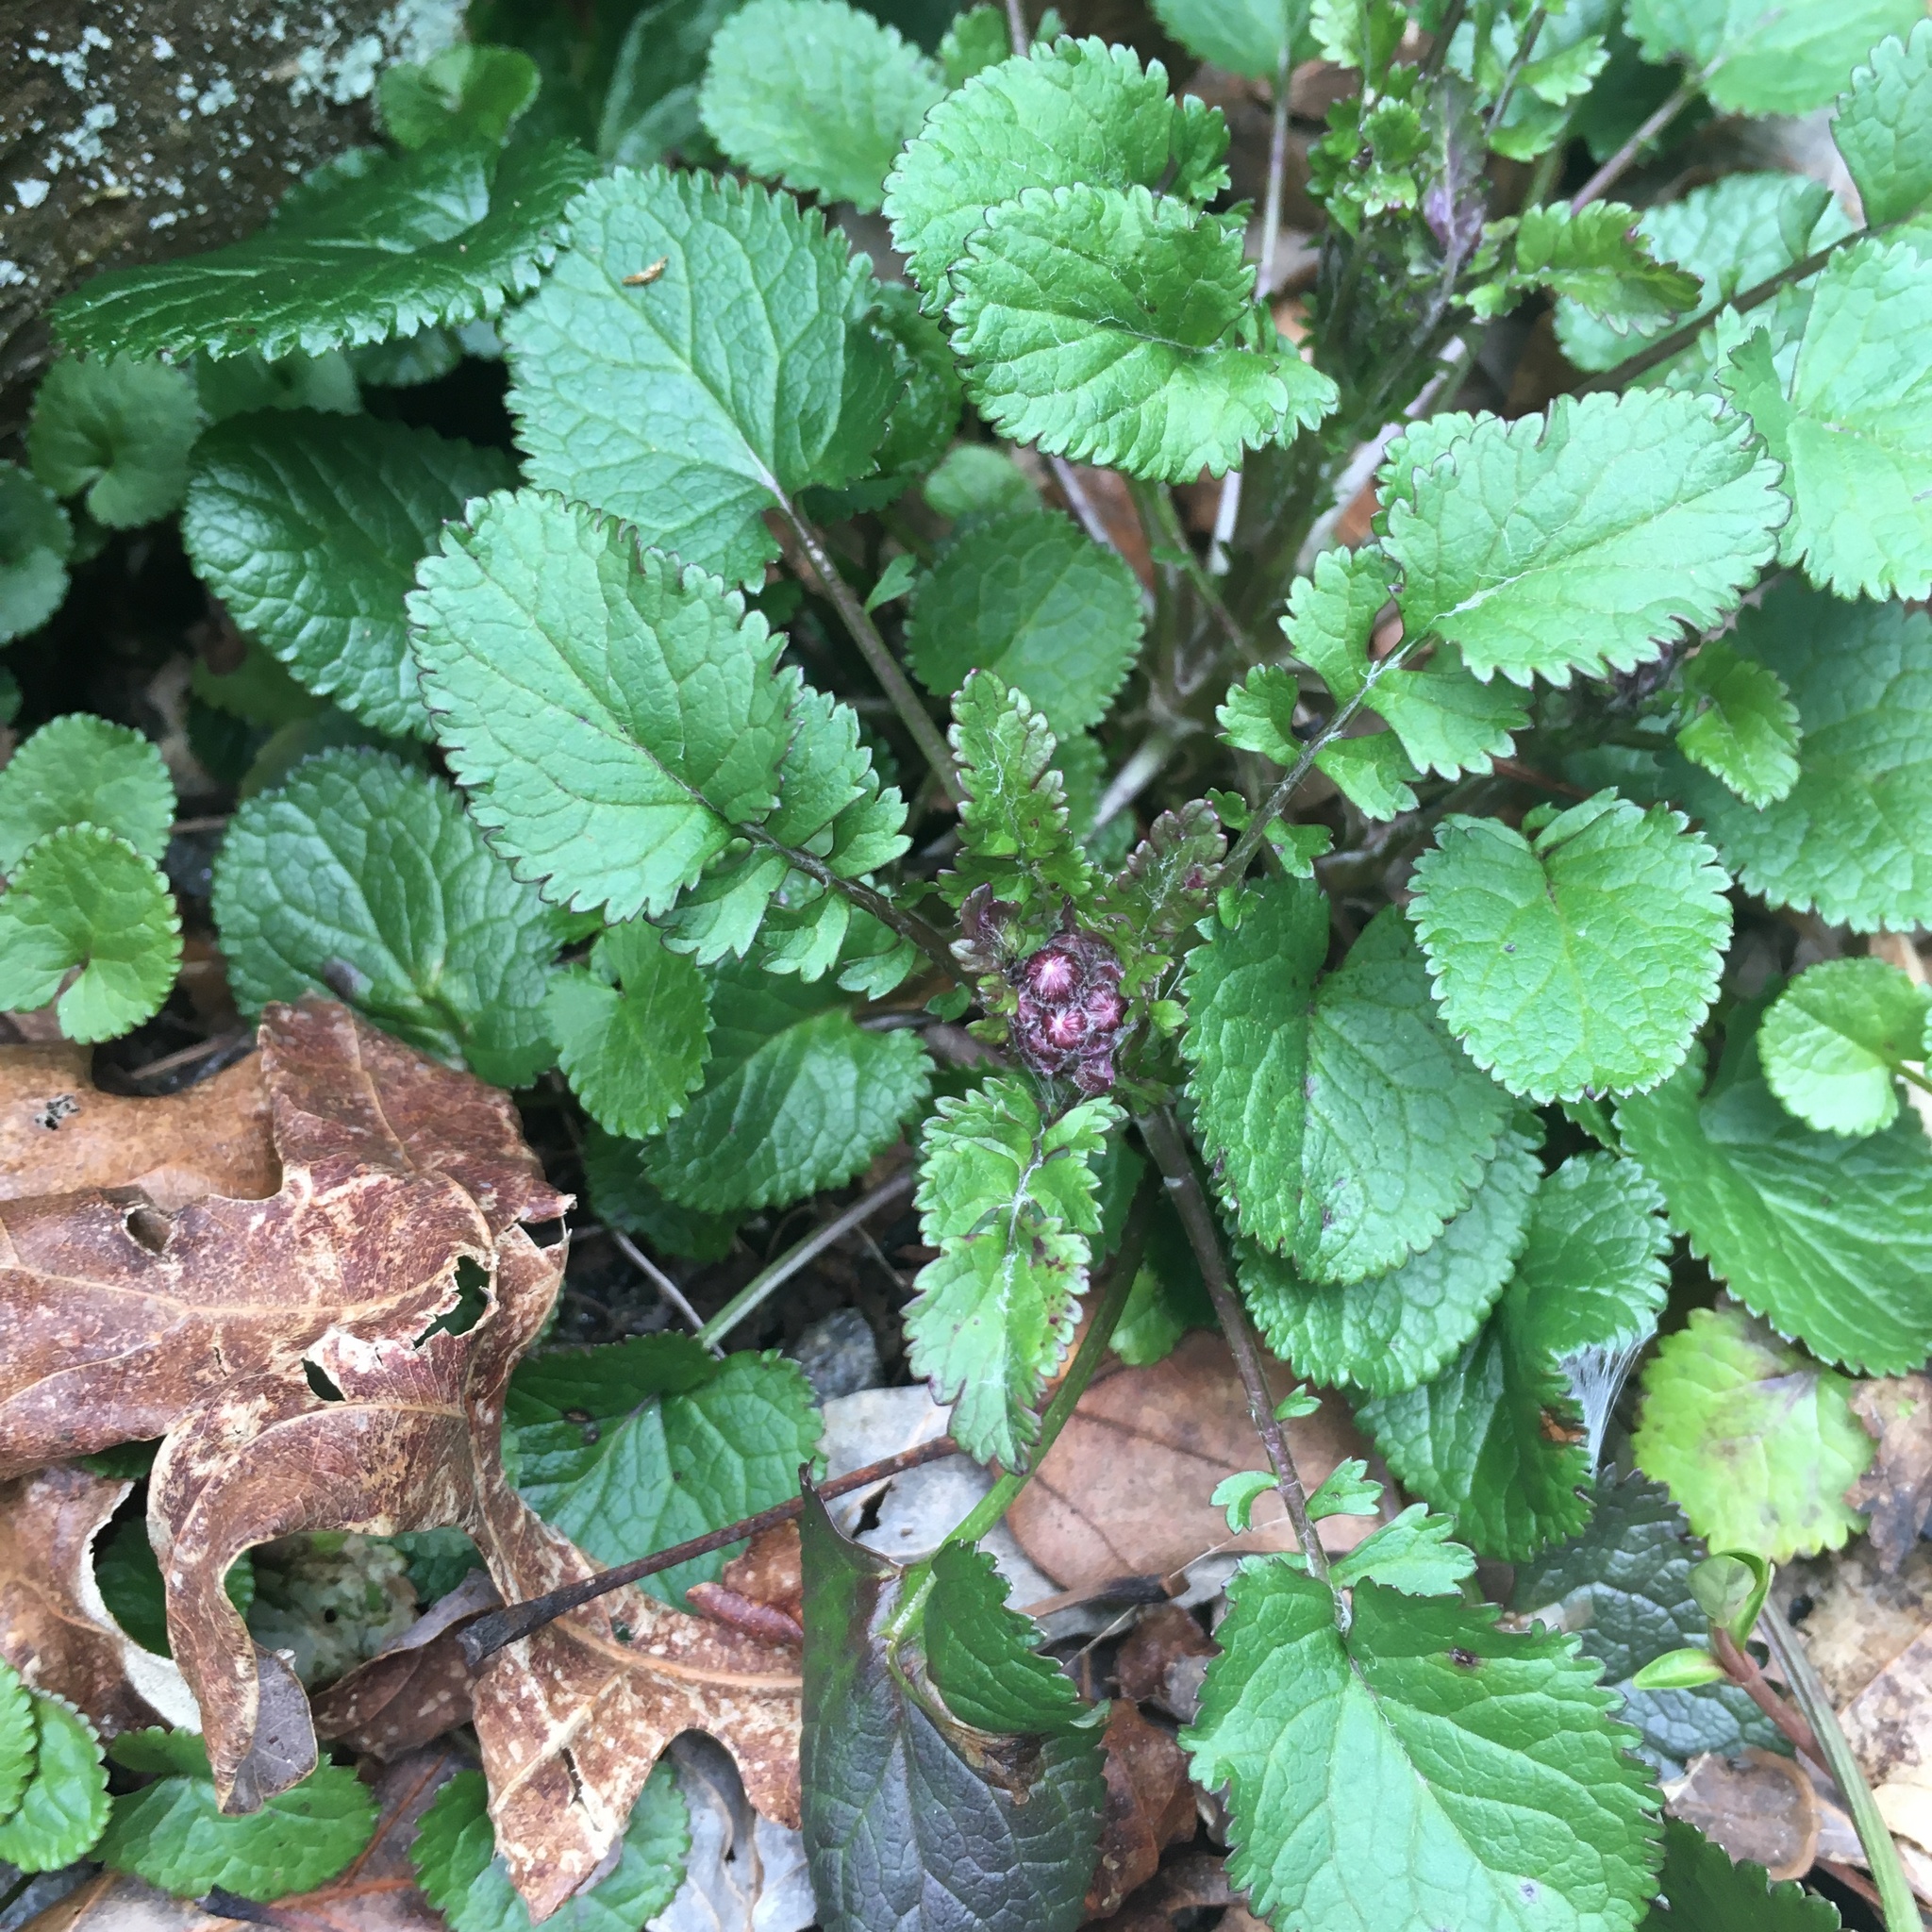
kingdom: Plantae
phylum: Tracheophyta
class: Magnoliopsida
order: Asterales
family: Asteraceae
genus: Packera
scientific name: Packera aurea
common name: Golden groundsel
